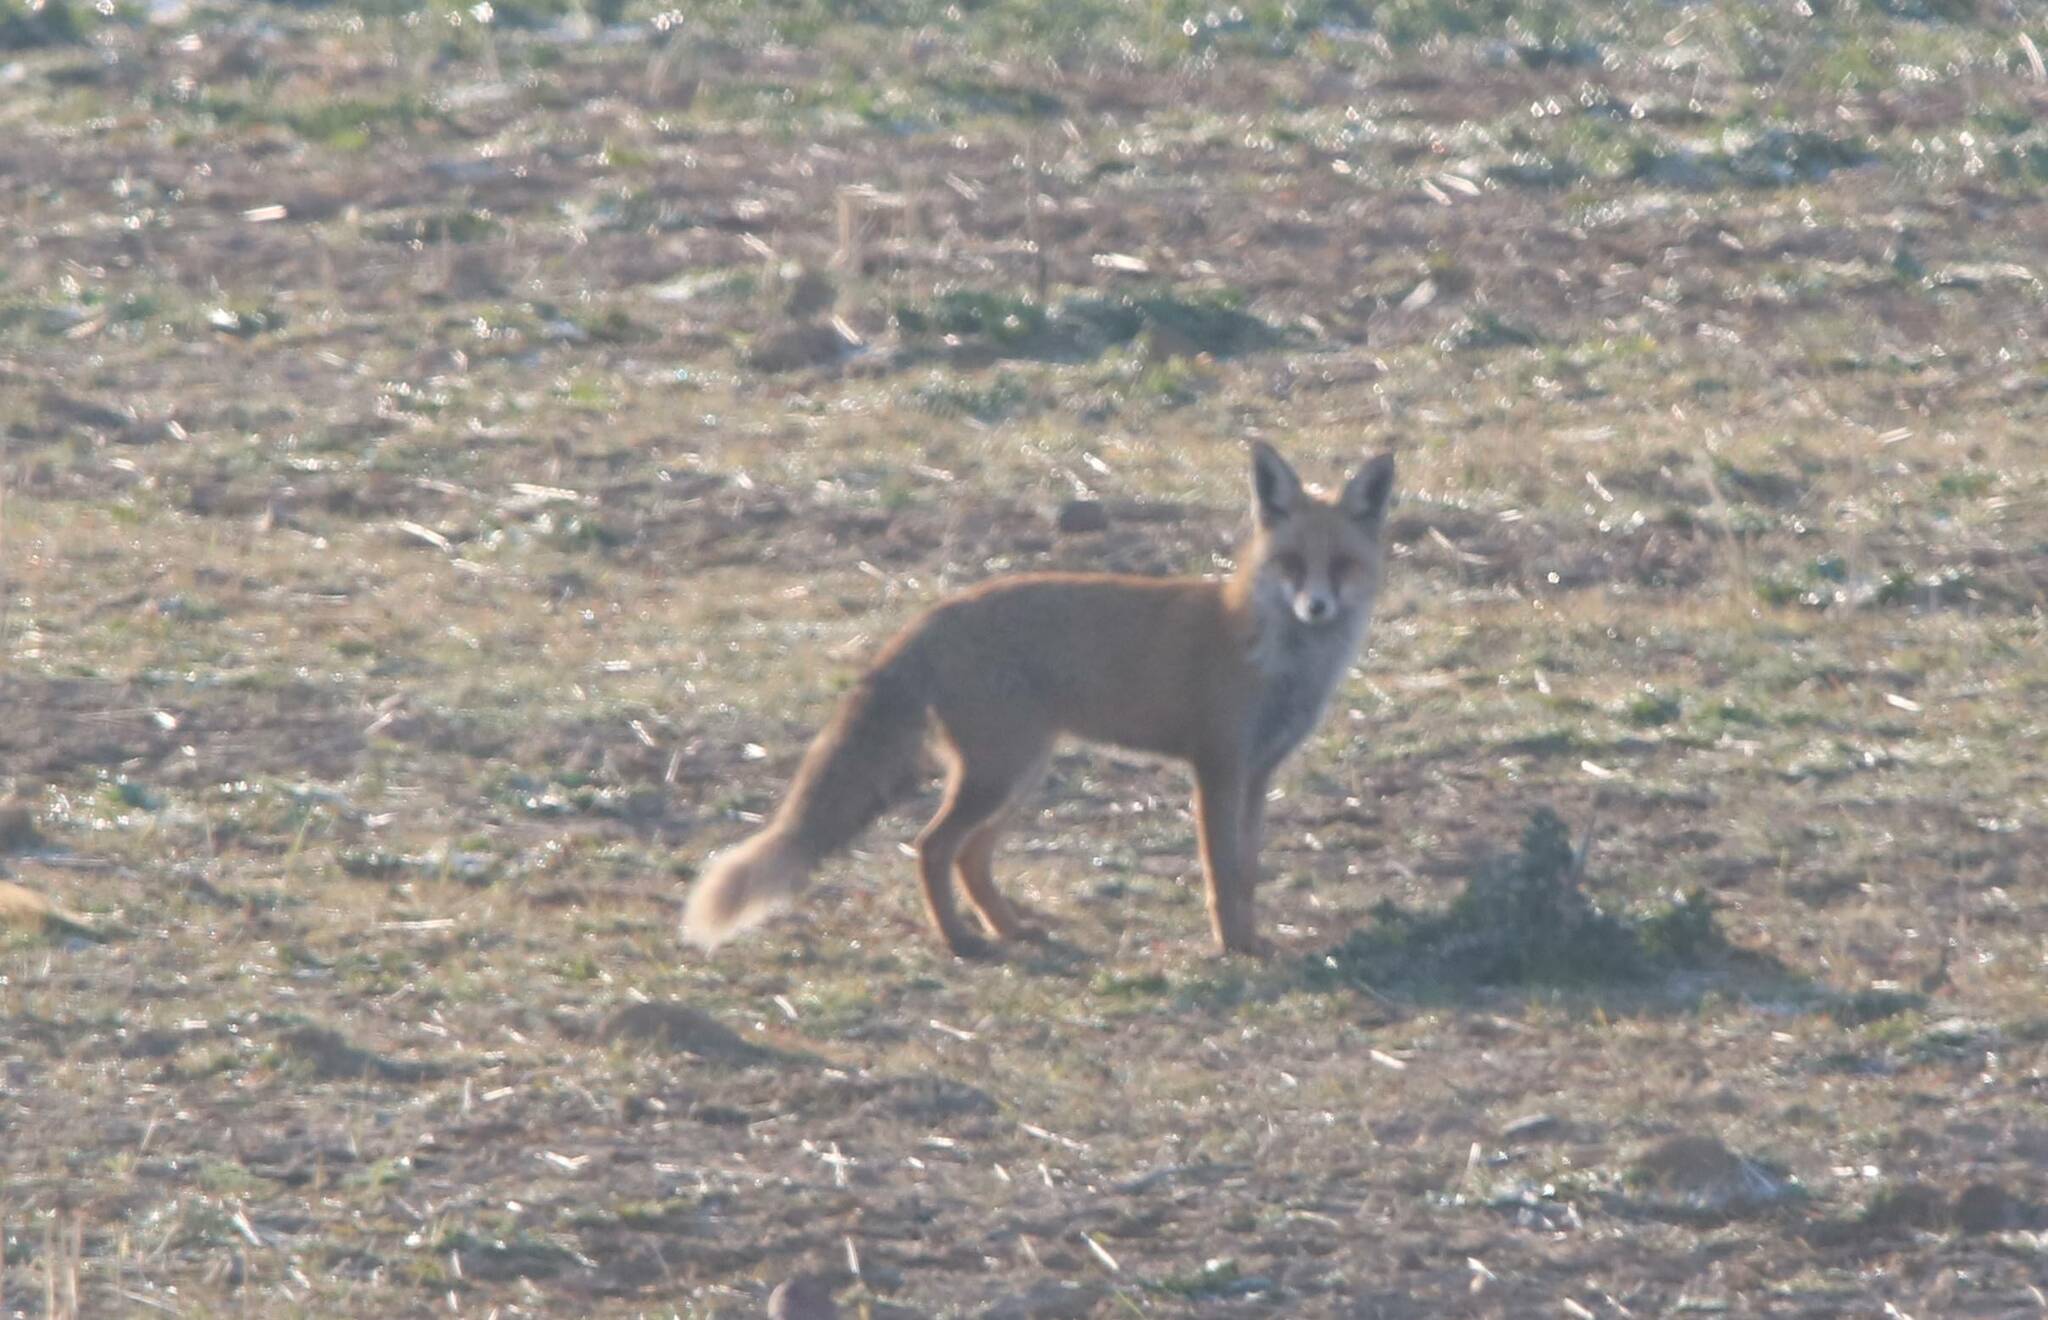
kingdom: Animalia
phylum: Chordata
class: Mammalia
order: Carnivora
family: Canidae
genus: Vulpes
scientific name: Vulpes vulpes
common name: Red fox
